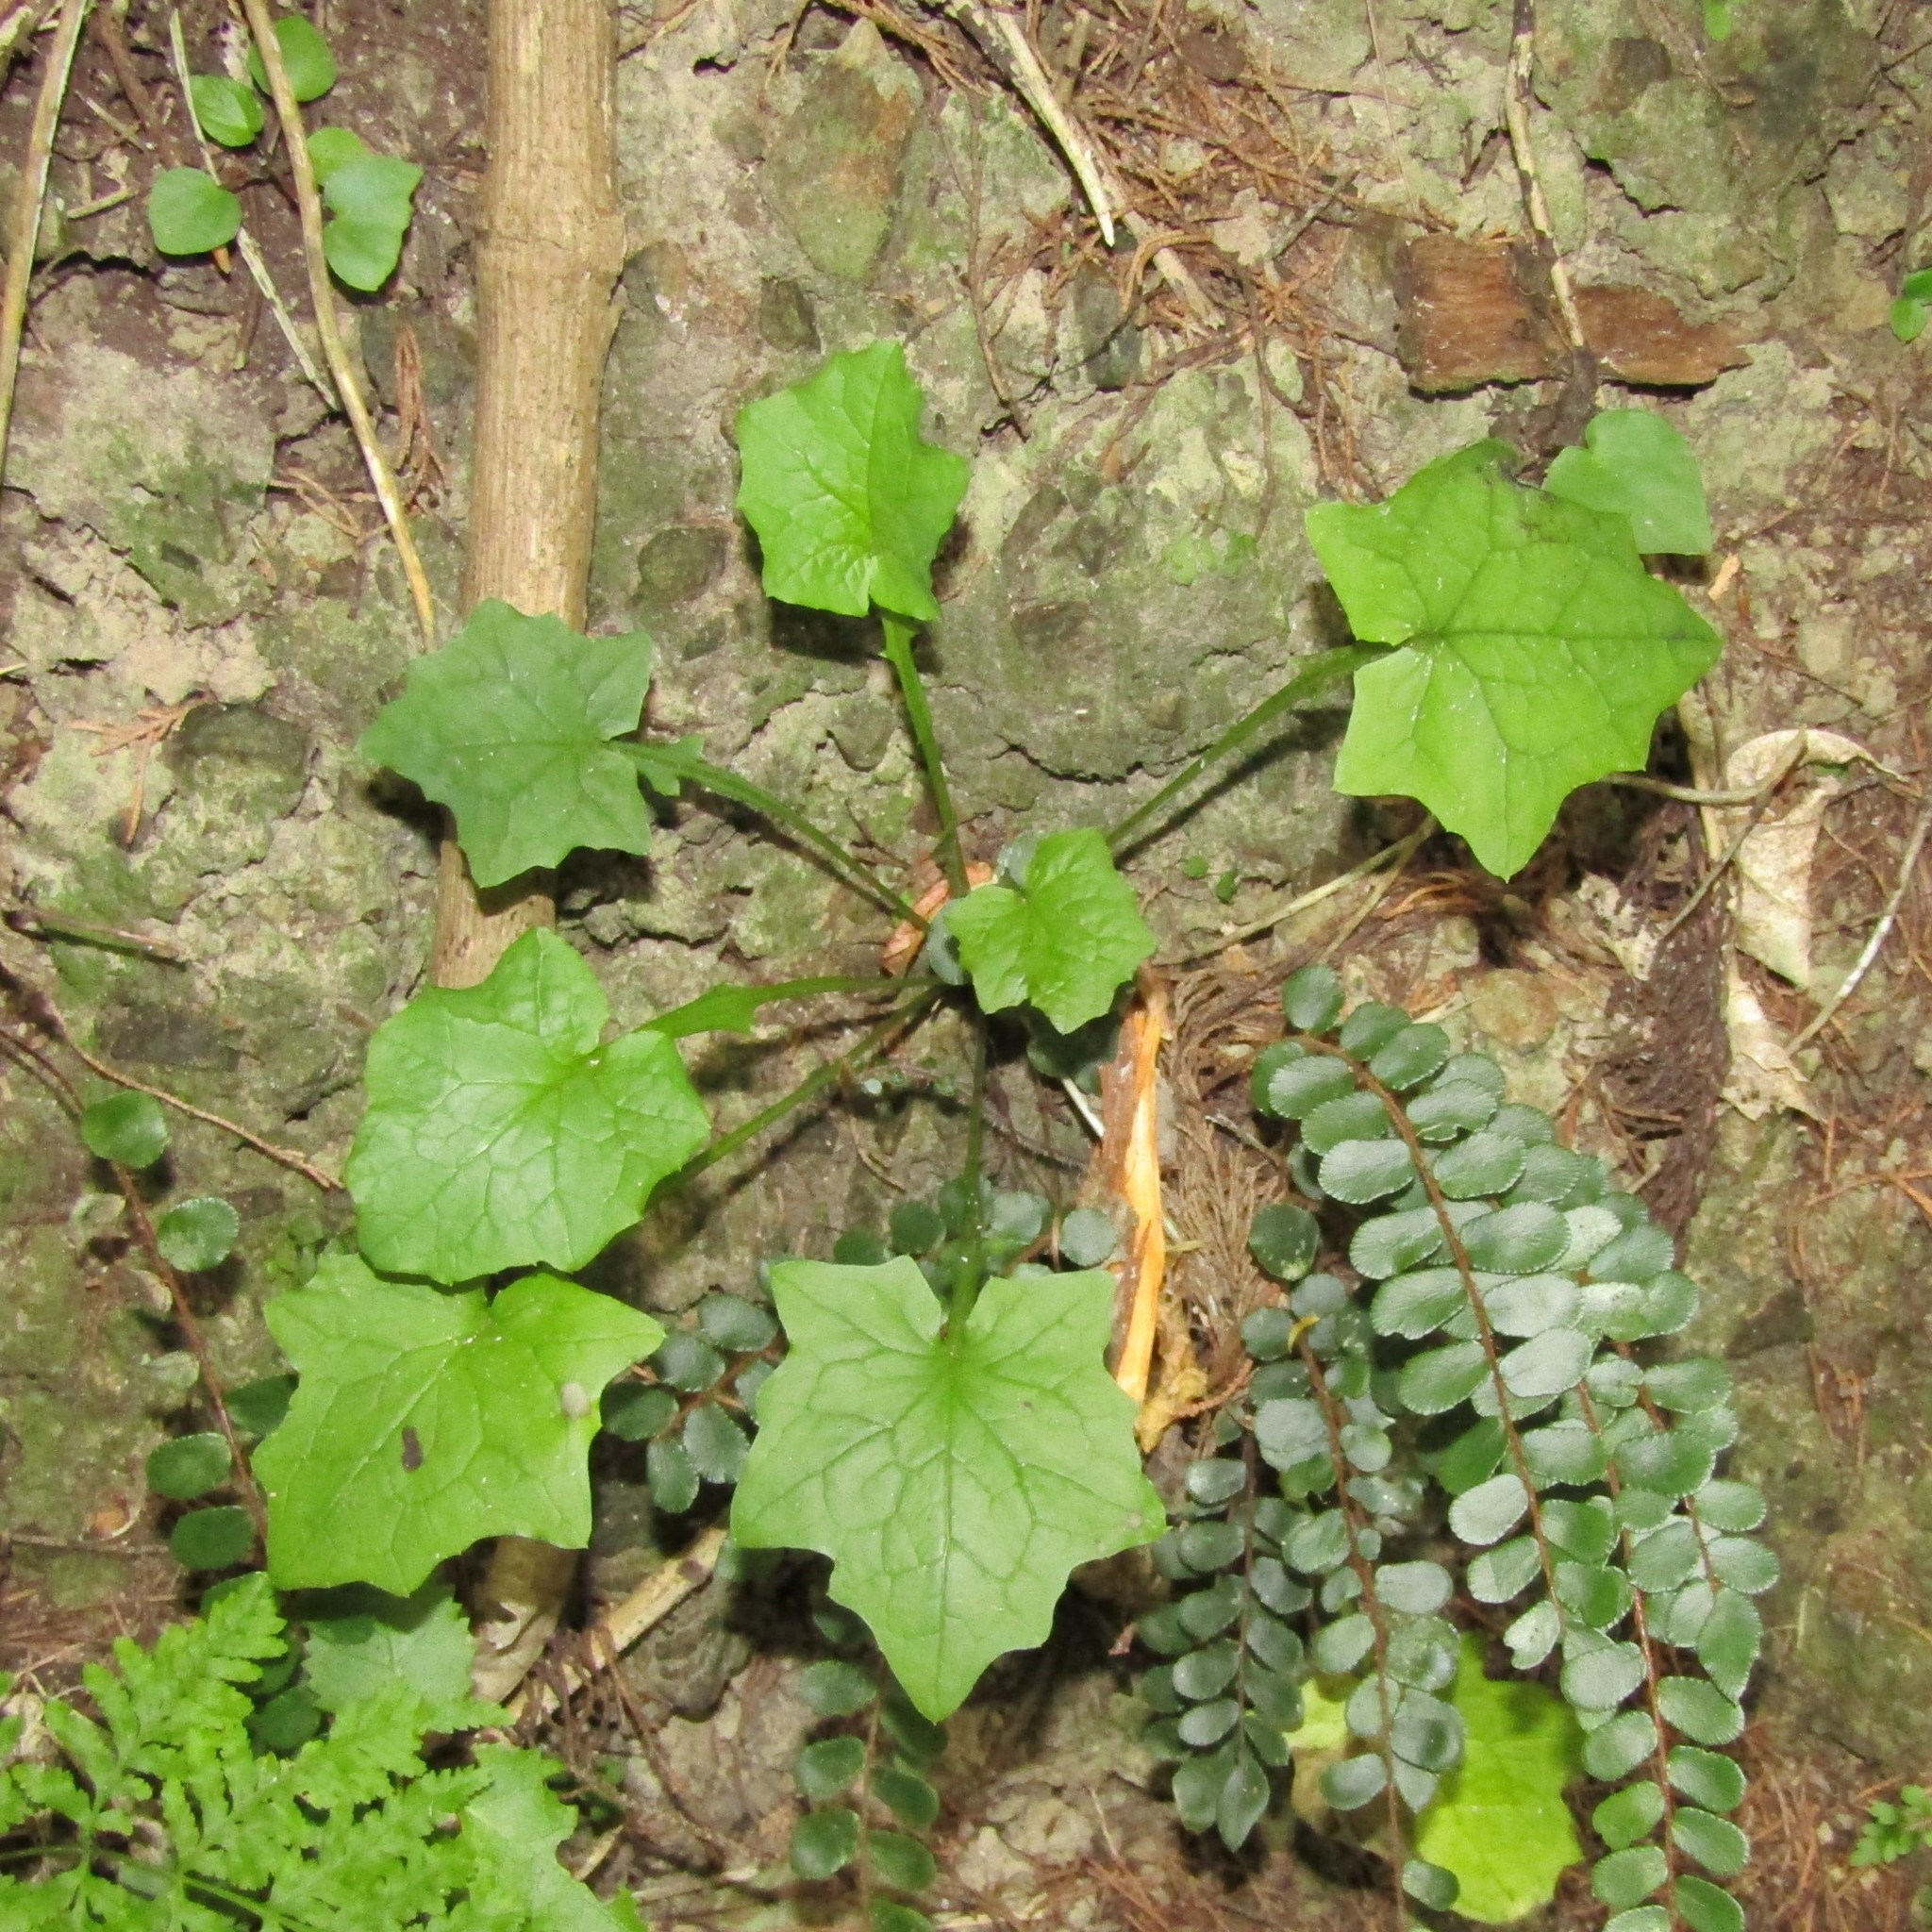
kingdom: Plantae
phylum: Tracheophyta
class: Magnoliopsida
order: Asterales
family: Asteraceae
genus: Mycelis
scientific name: Mycelis muralis
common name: Wall lettuce
